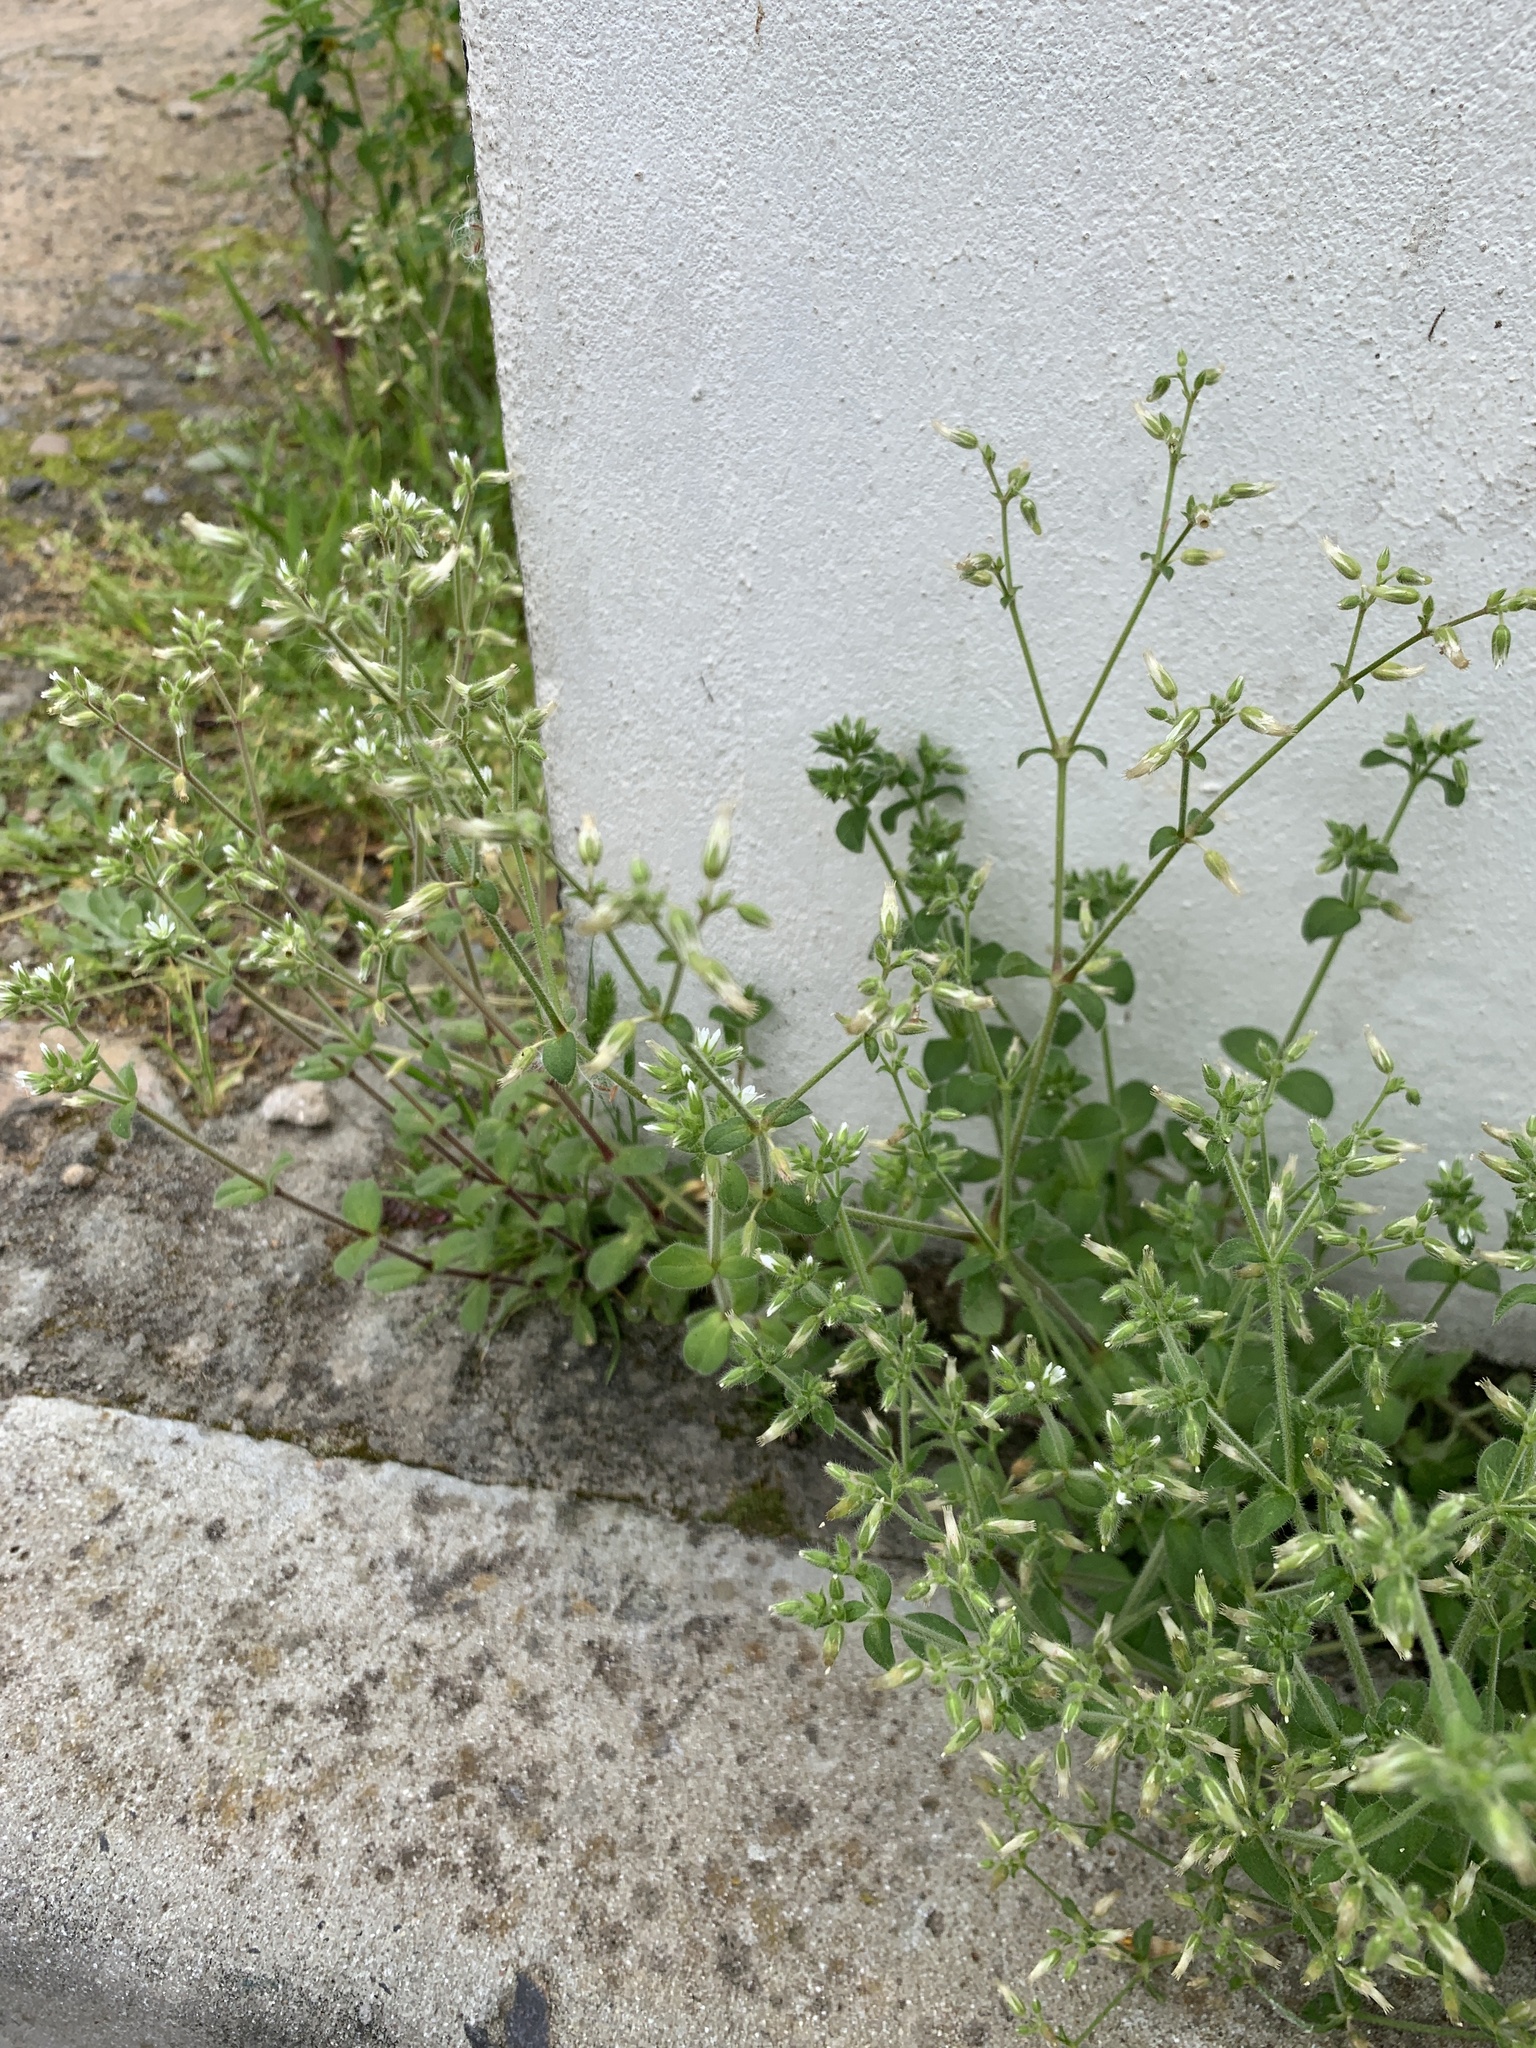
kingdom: Plantae
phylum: Tracheophyta
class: Magnoliopsida
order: Caryophyllales
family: Caryophyllaceae
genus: Cerastium
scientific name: Cerastium glomeratum
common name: Sticky chickweed
